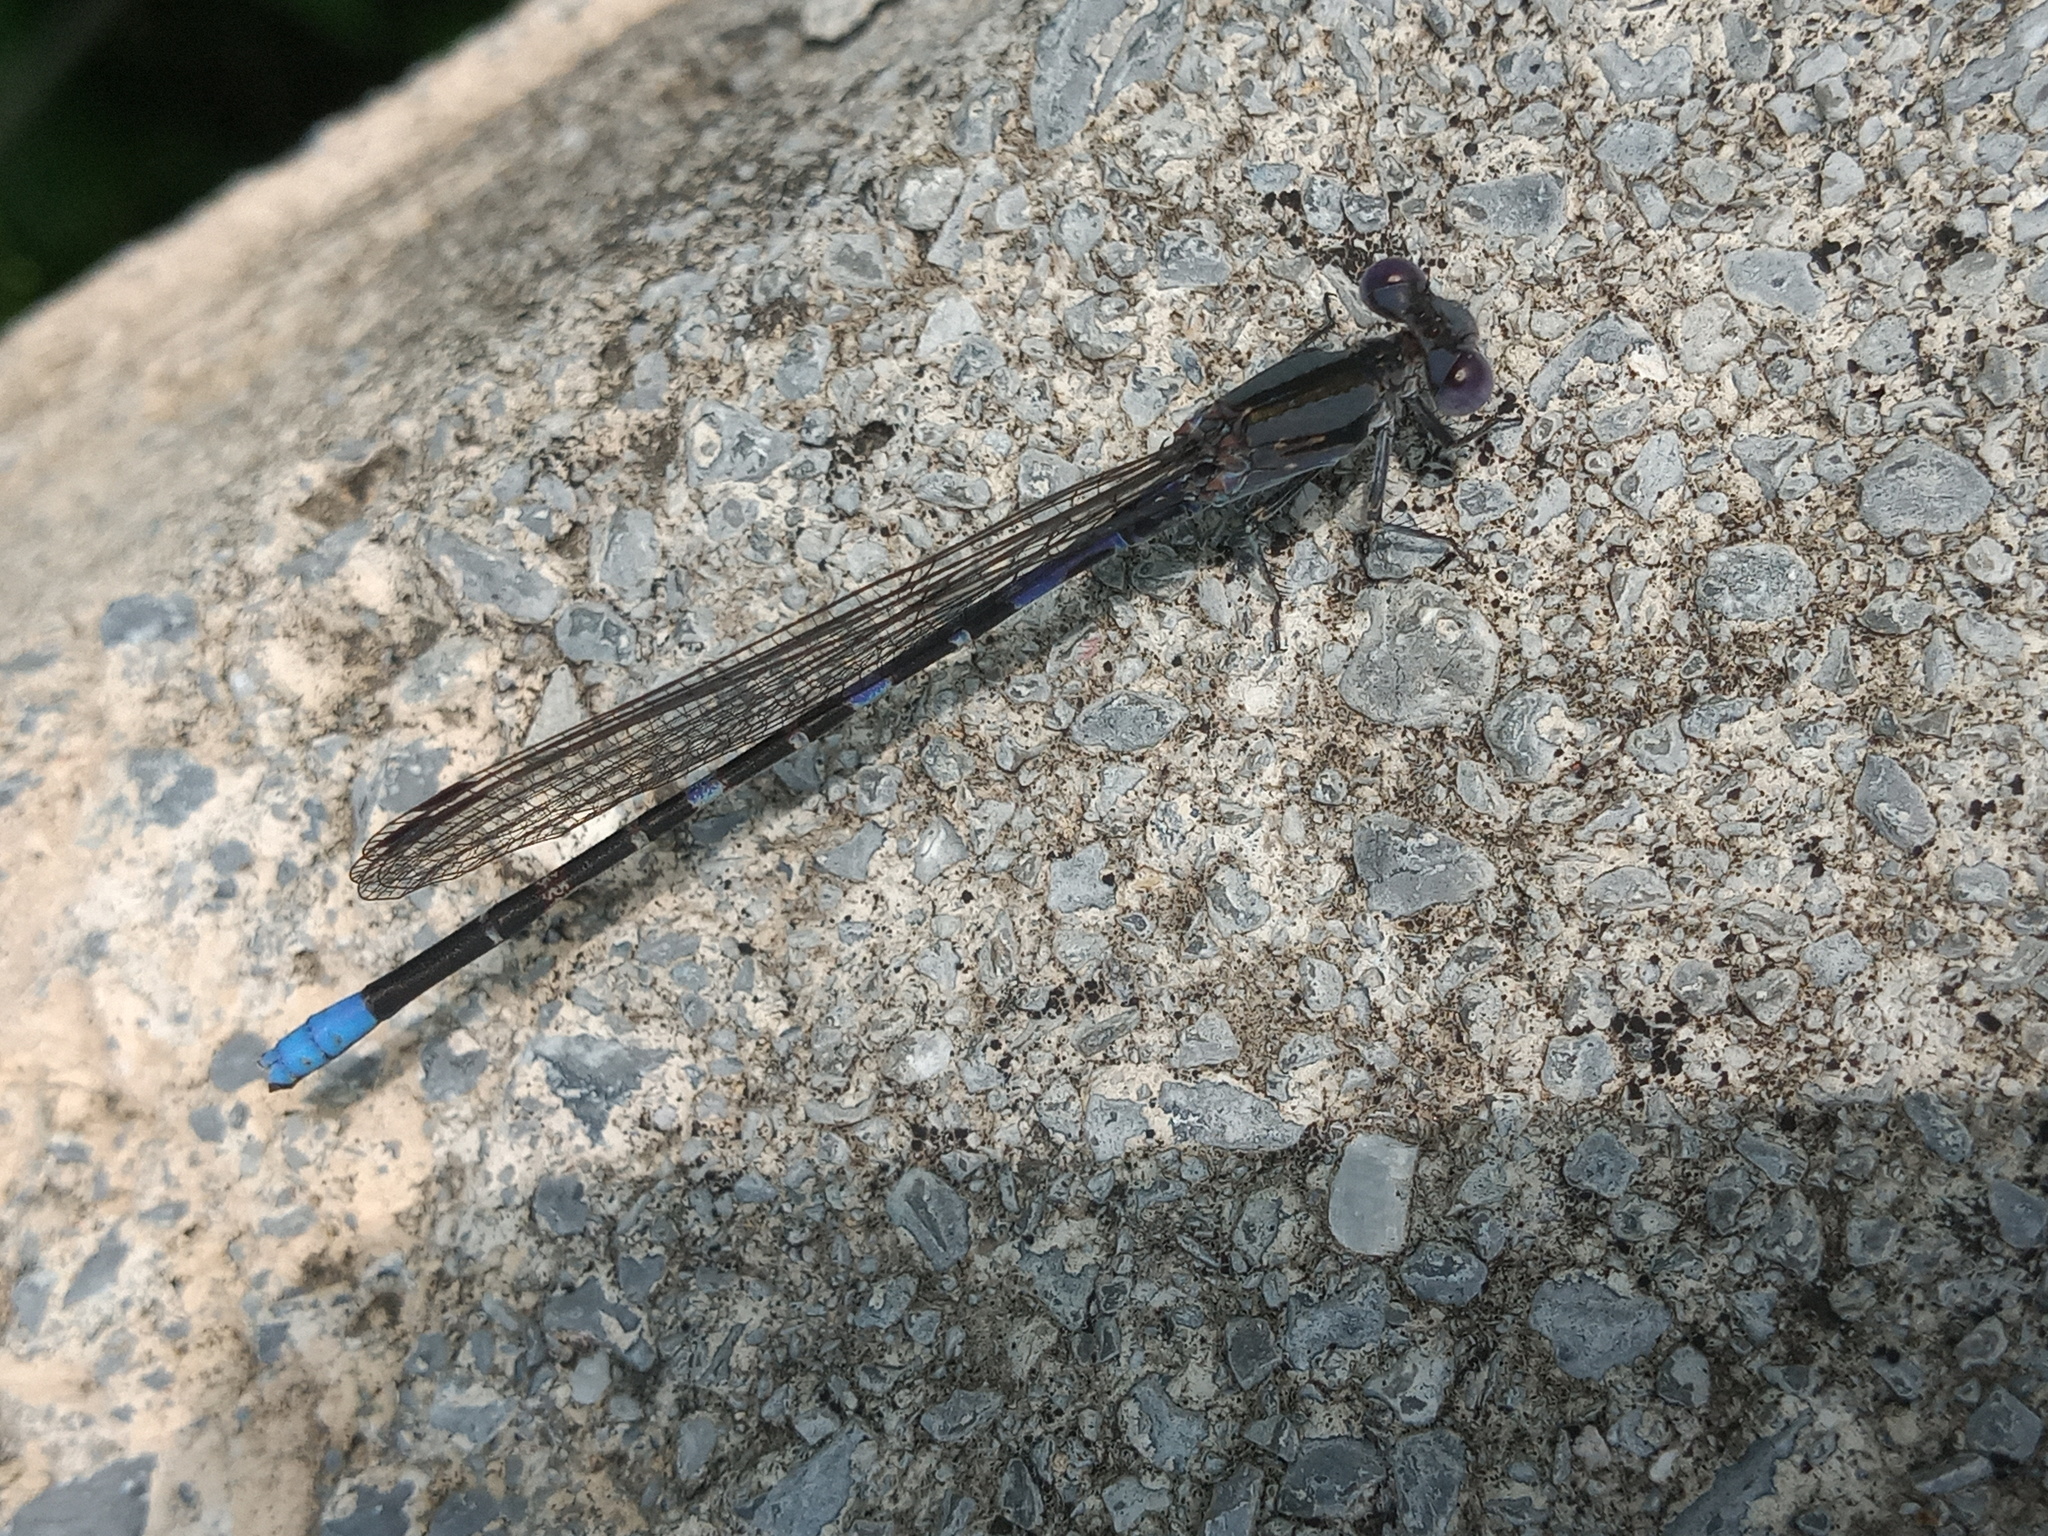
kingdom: Animalia
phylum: Arthropoda
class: Insecta
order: Odonata
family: Coenagrionidae
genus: Argia
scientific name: Argia immunda
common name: Kiowa dancer
